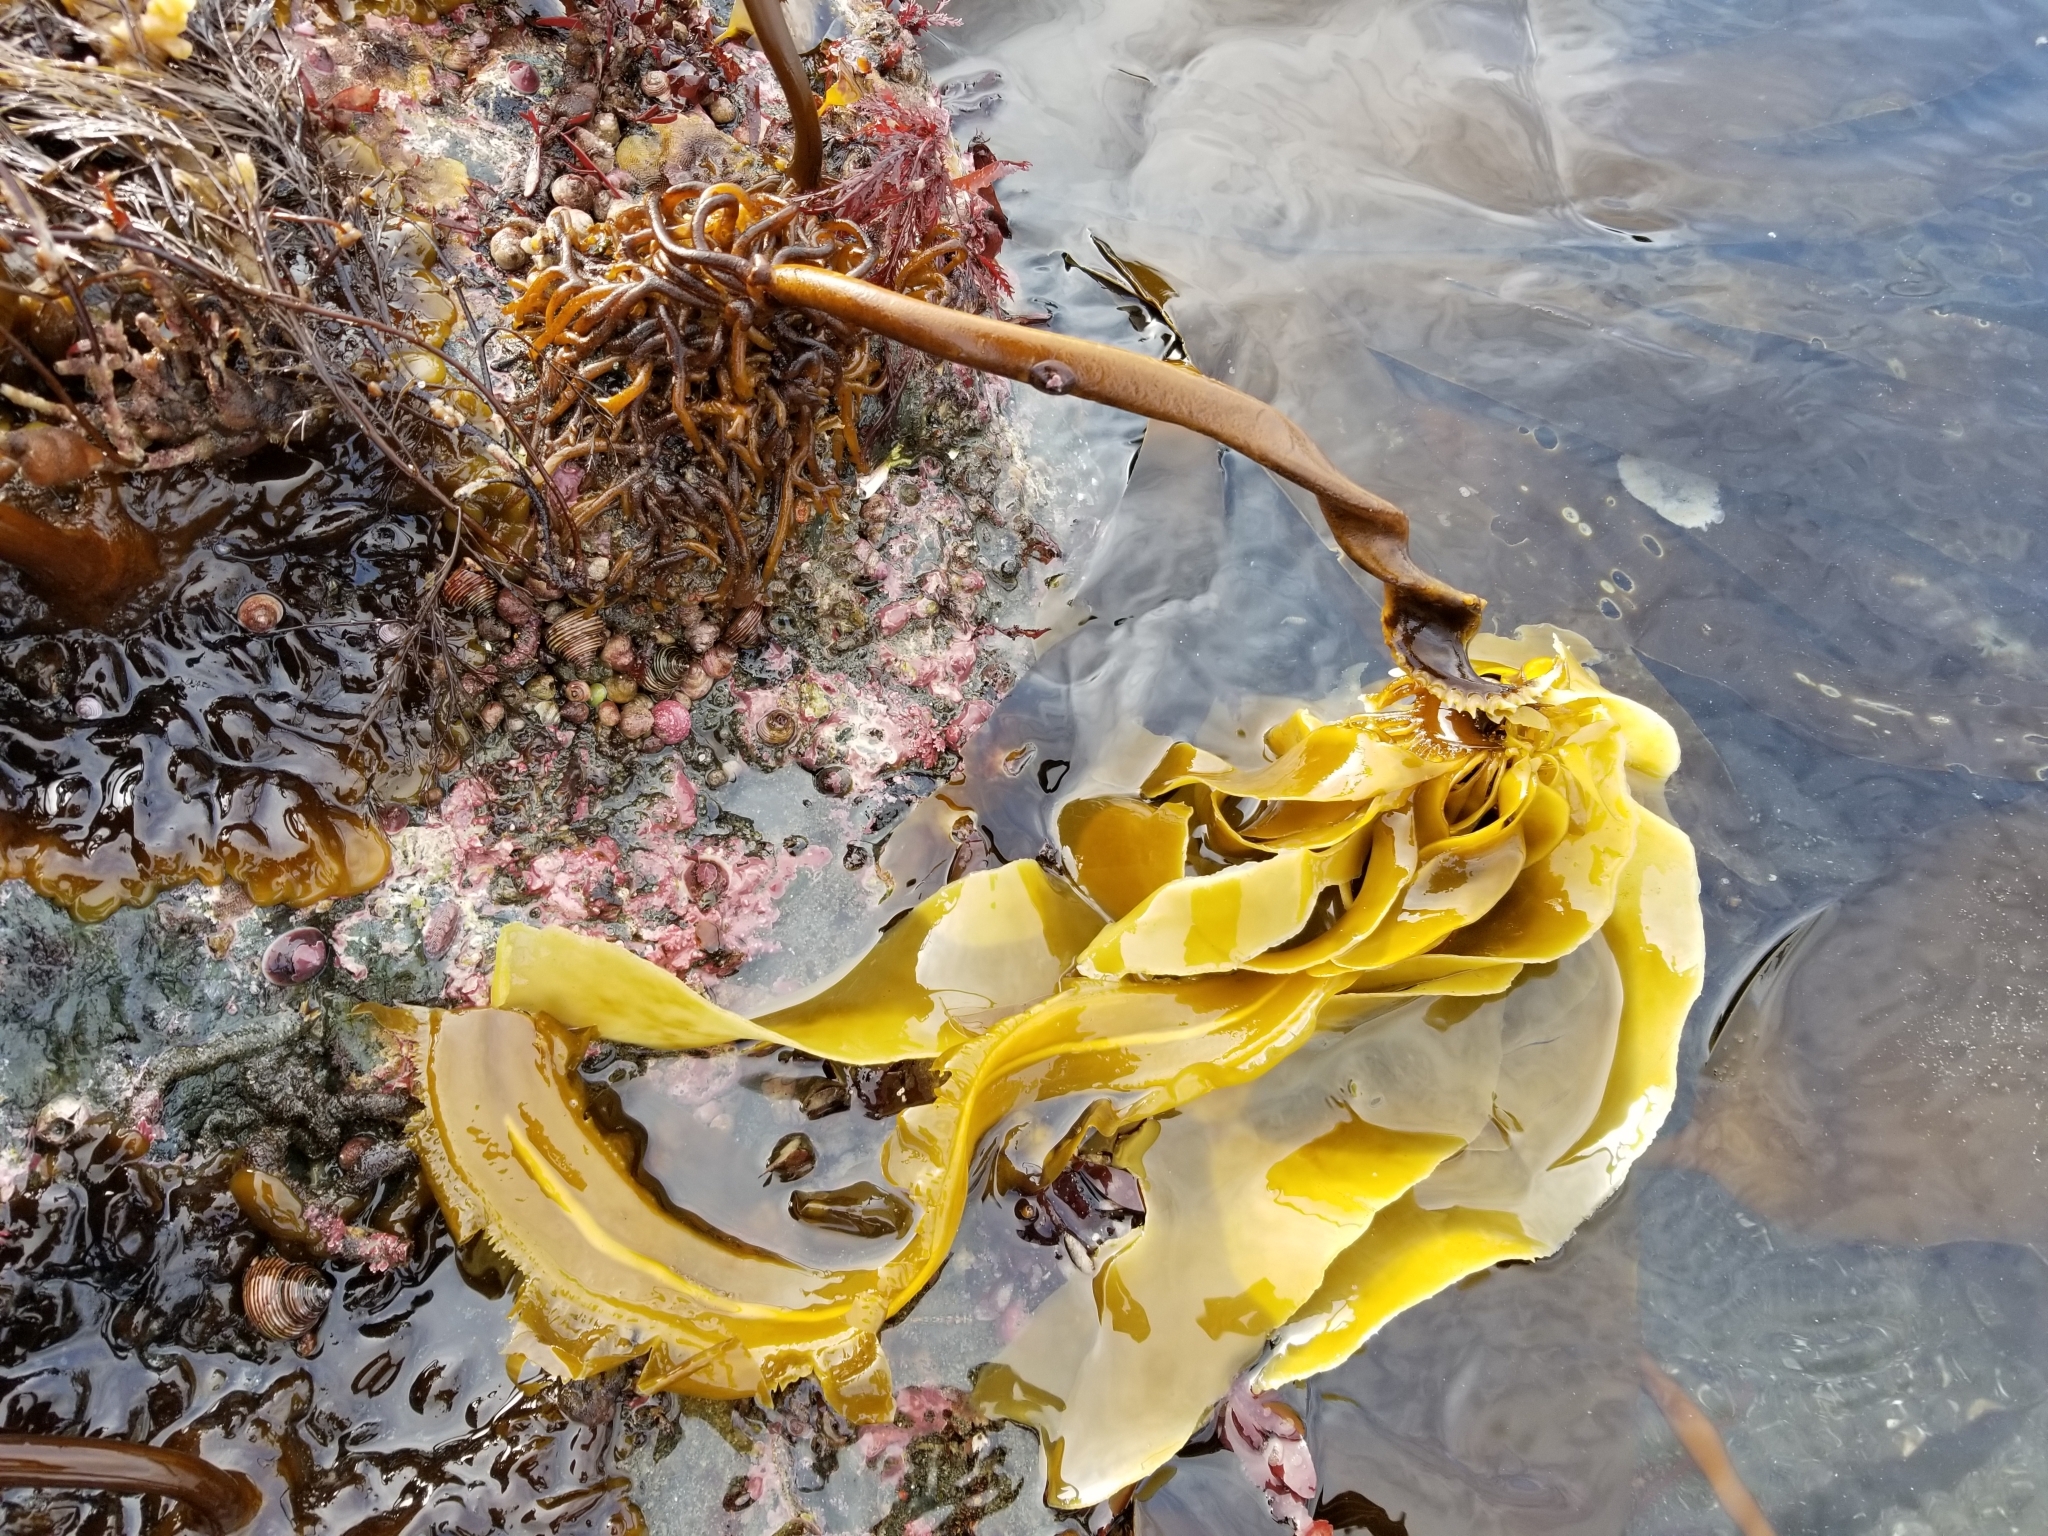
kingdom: Chromista
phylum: Ochrophyta
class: Phaeophyceae
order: Laminariales
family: Alariaceae
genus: Eualaria
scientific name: Eualaria
